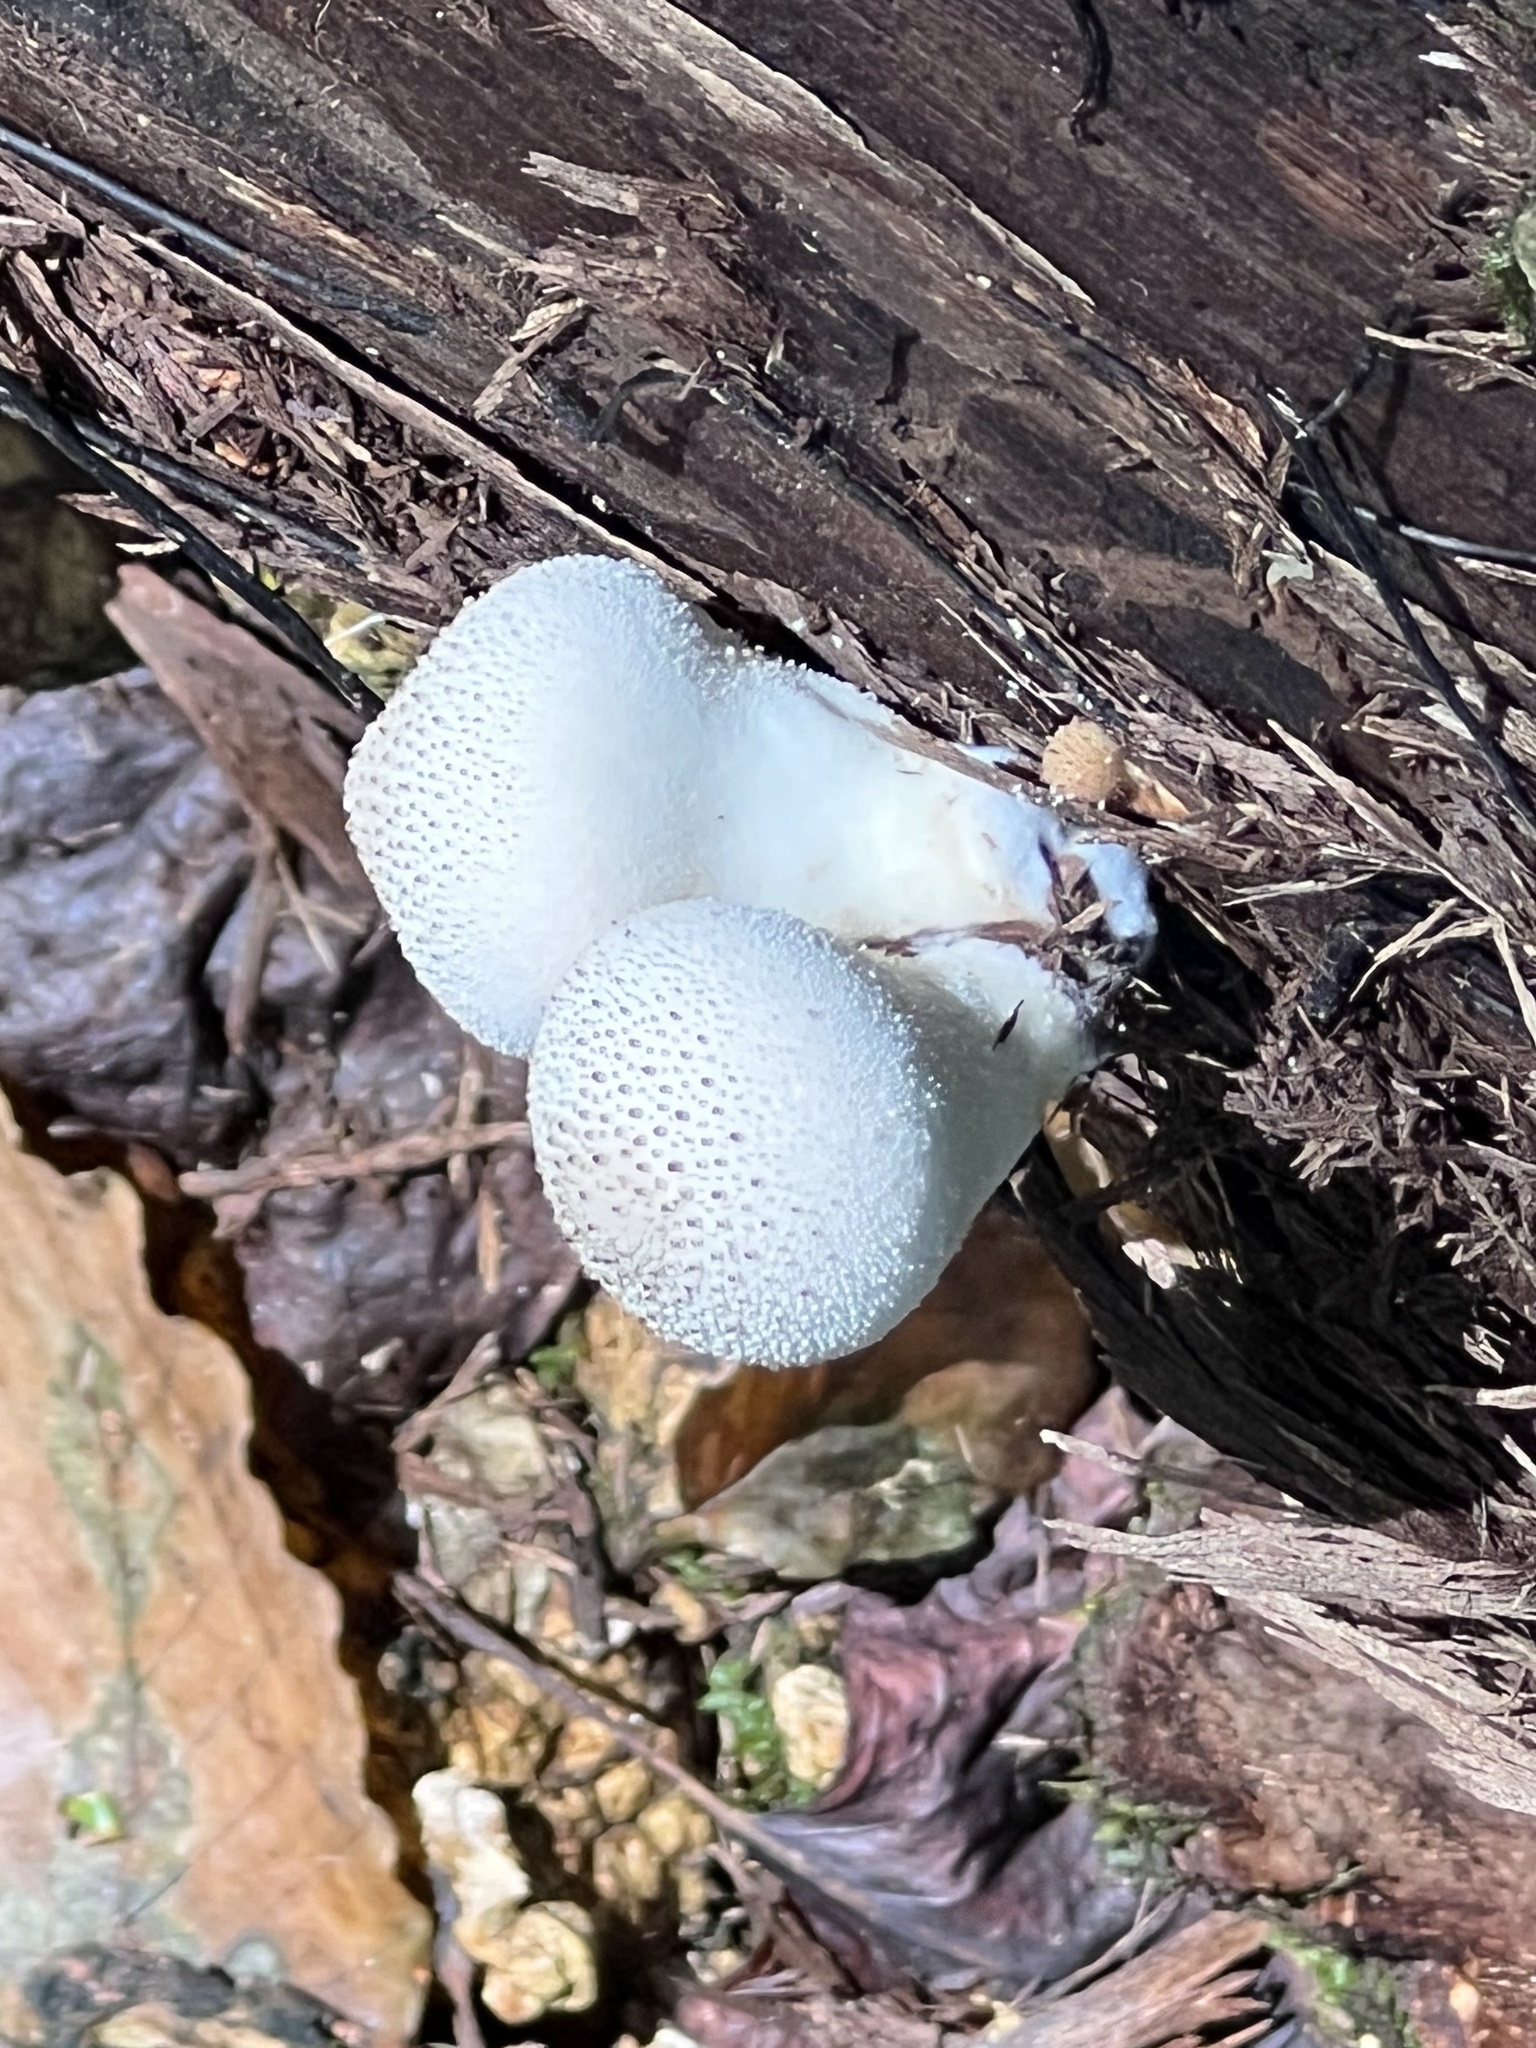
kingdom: Fungi
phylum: Basidiomycota
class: Agaricomycetes
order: Agaricales
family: Lycoperdaceae
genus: Lycoperdon
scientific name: Lycoperdon perlatum
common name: Common puffball
